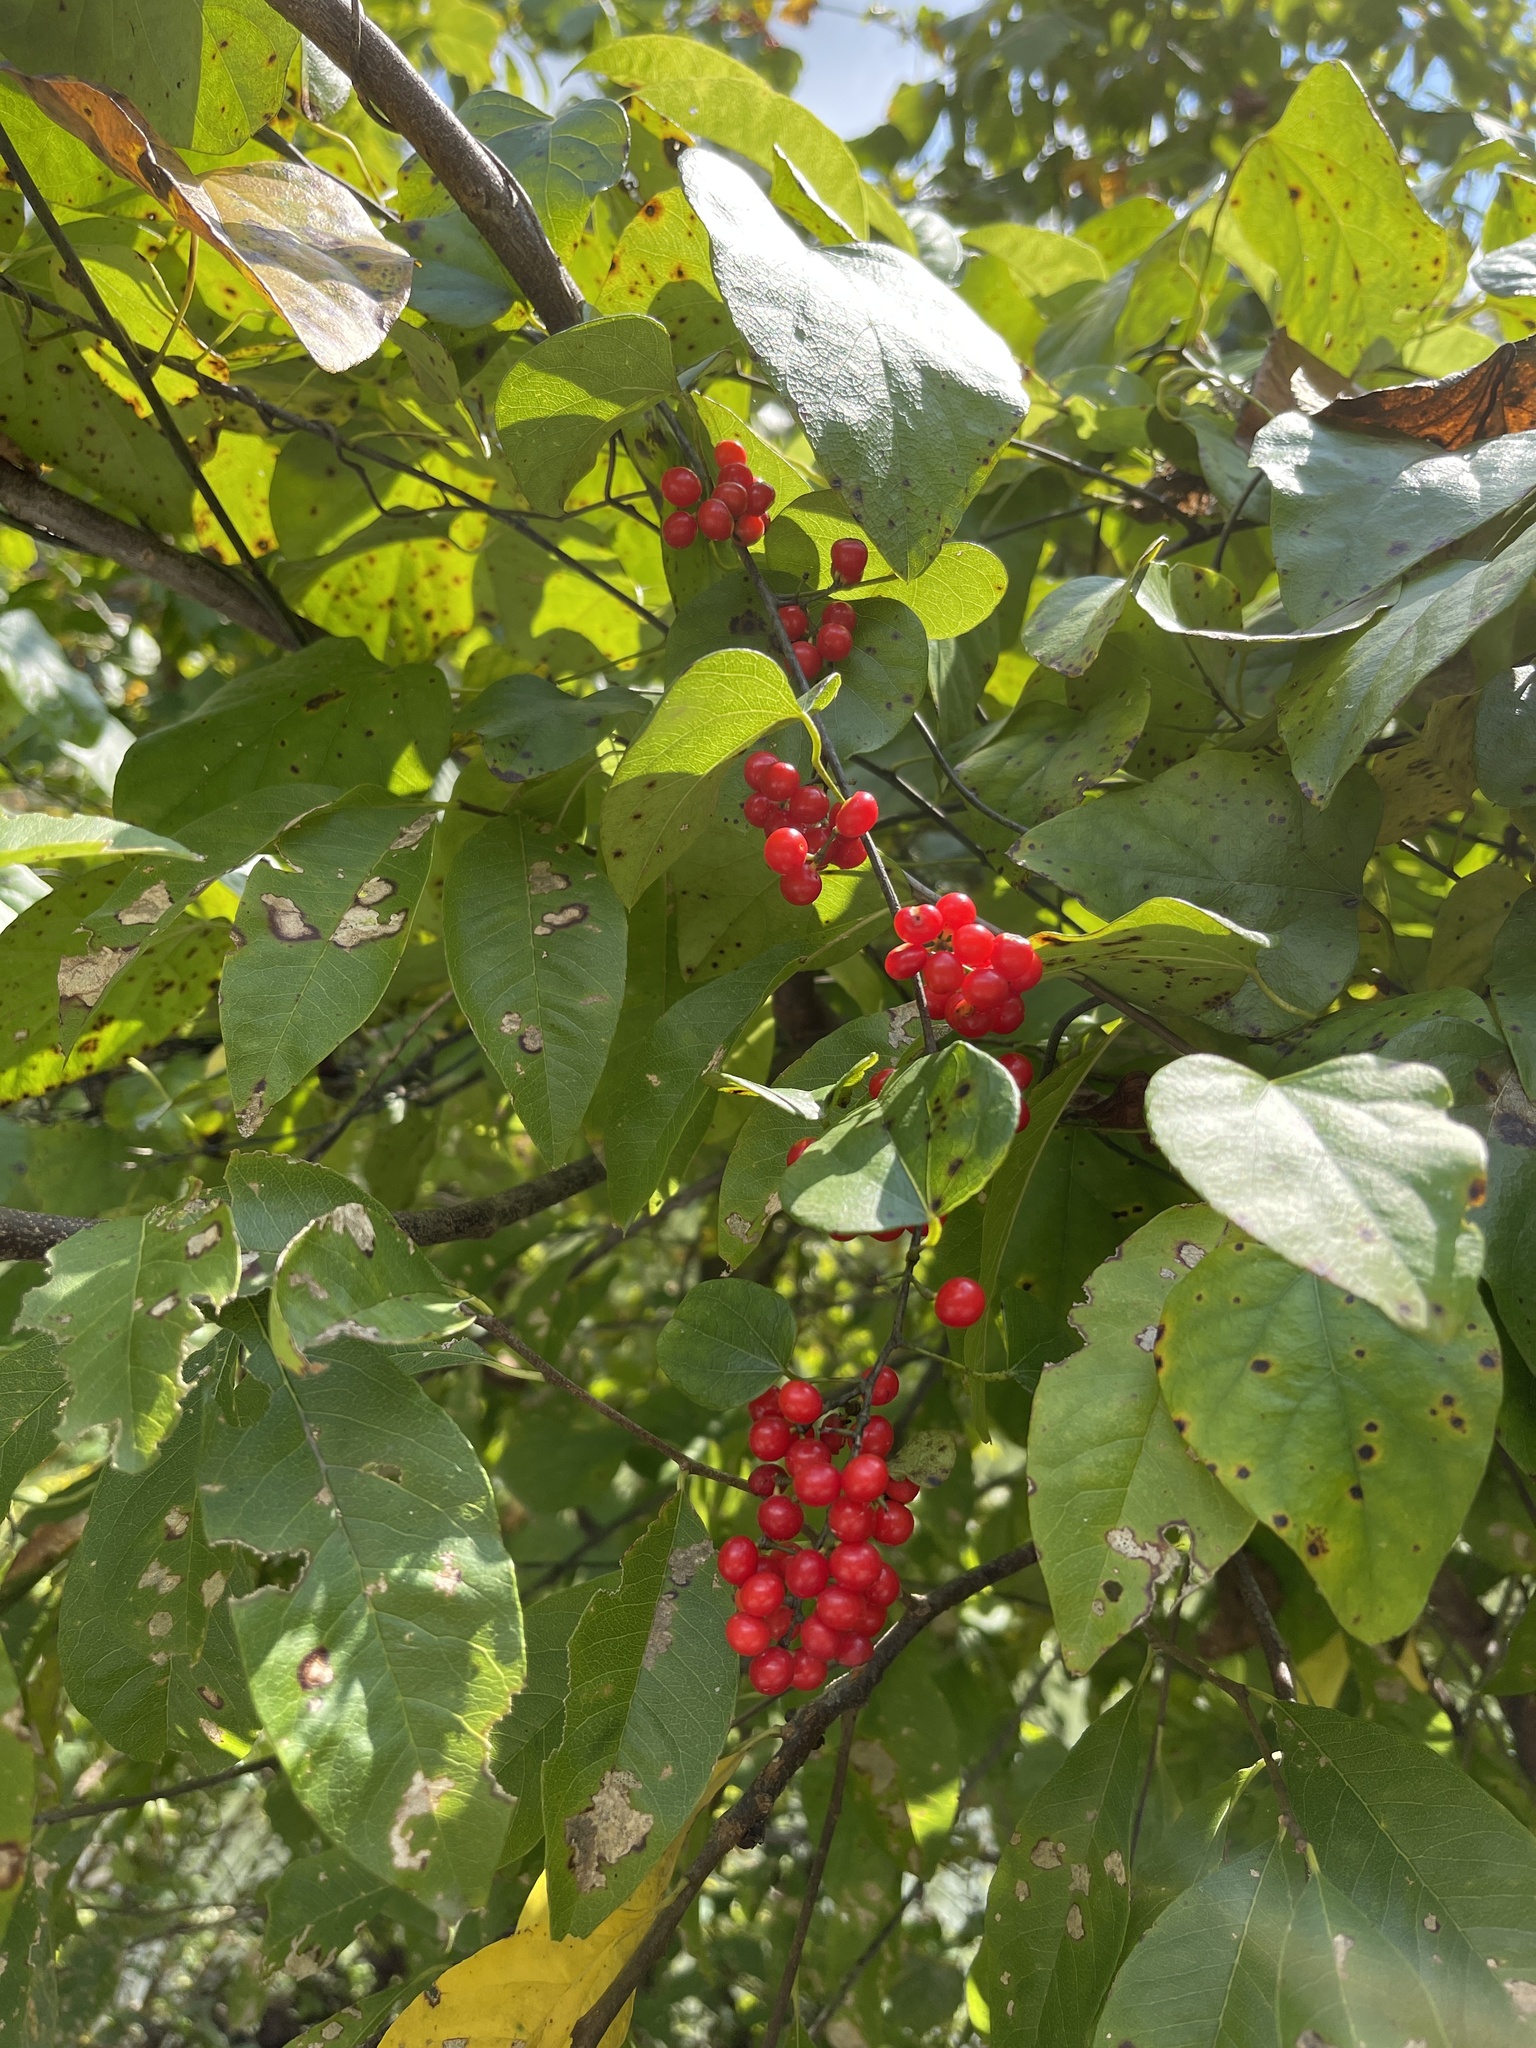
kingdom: Plantae
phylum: Tracheophyta
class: Magnoliopsida
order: Ranunculales
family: Menispermaceae
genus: Cocculus
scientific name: Cocculus carolinus
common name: Carolina moonseed
